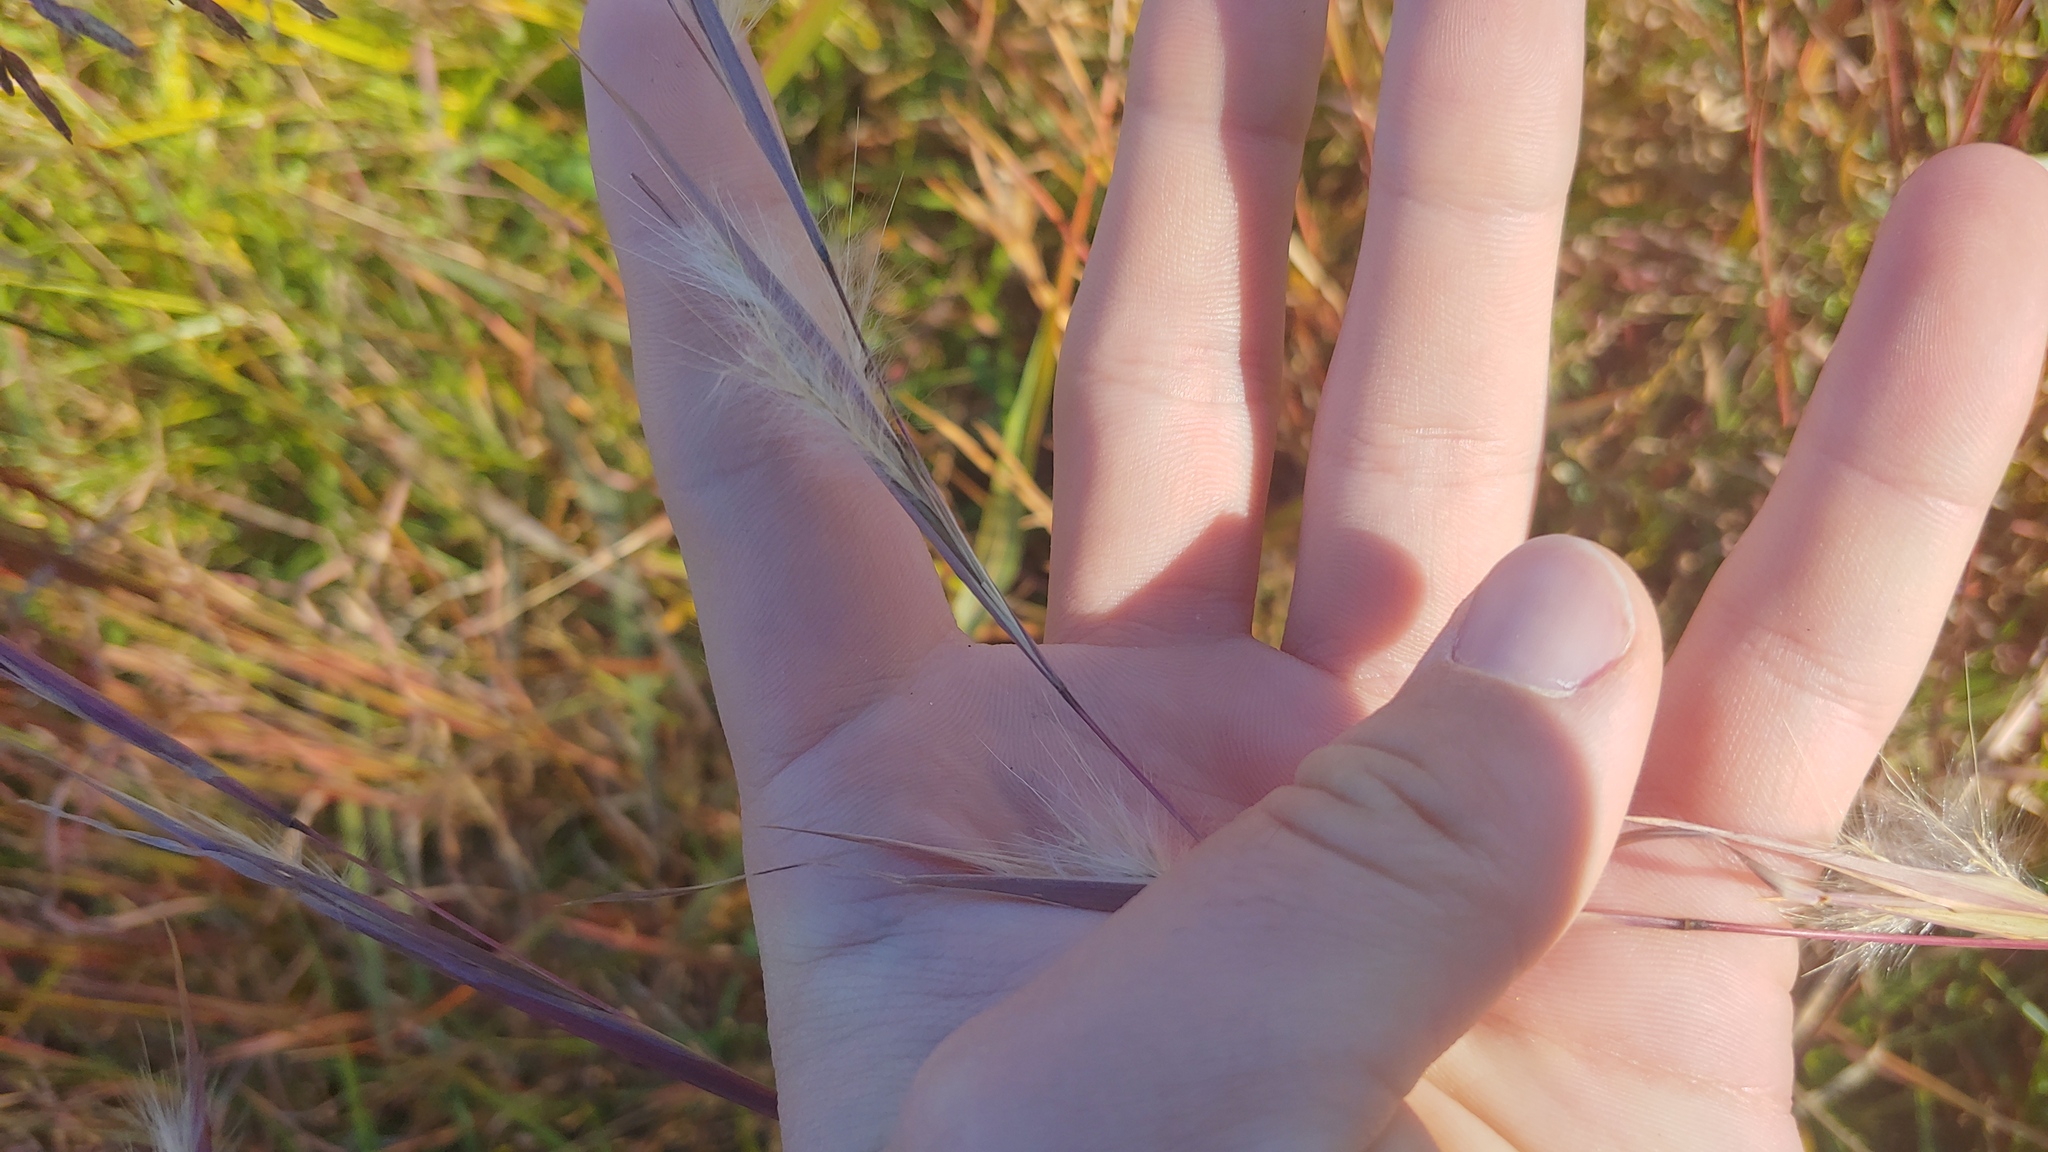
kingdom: Plantae
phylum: Tracheophyta
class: Liliopsida
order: Poales
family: Poaceae
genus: Andropogon
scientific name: Andropogon gyrans
